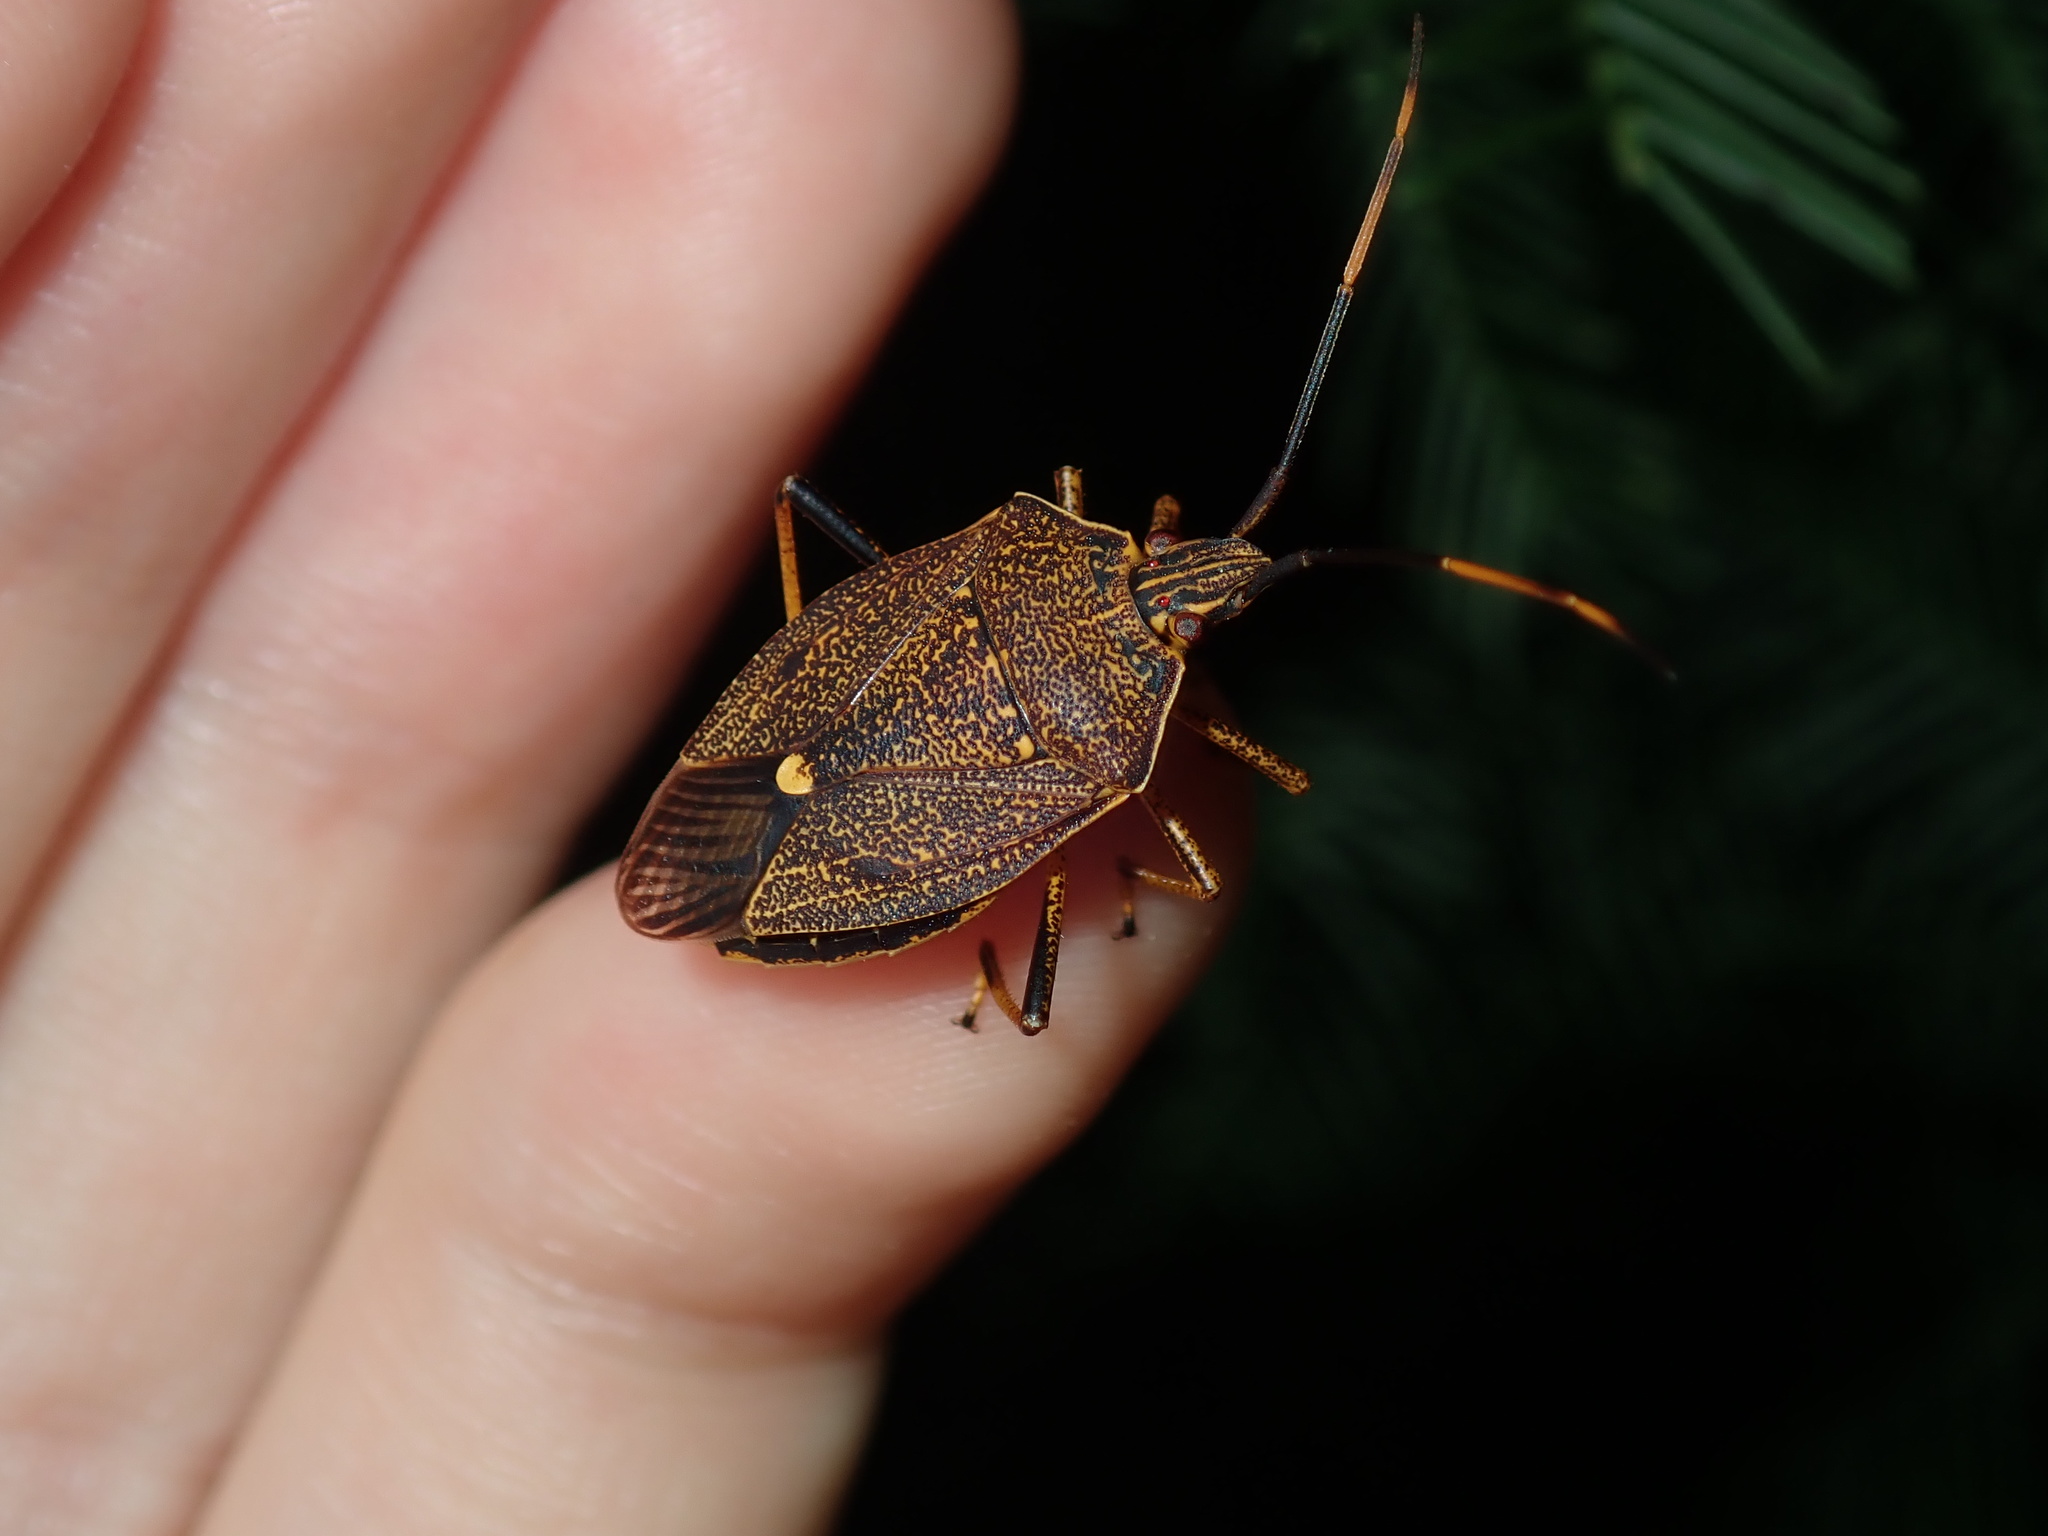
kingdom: Animalia
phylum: Arthropoda
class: Insecta
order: Hemiptera
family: Pentatomidae
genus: Poecilometis
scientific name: Poecilometis
